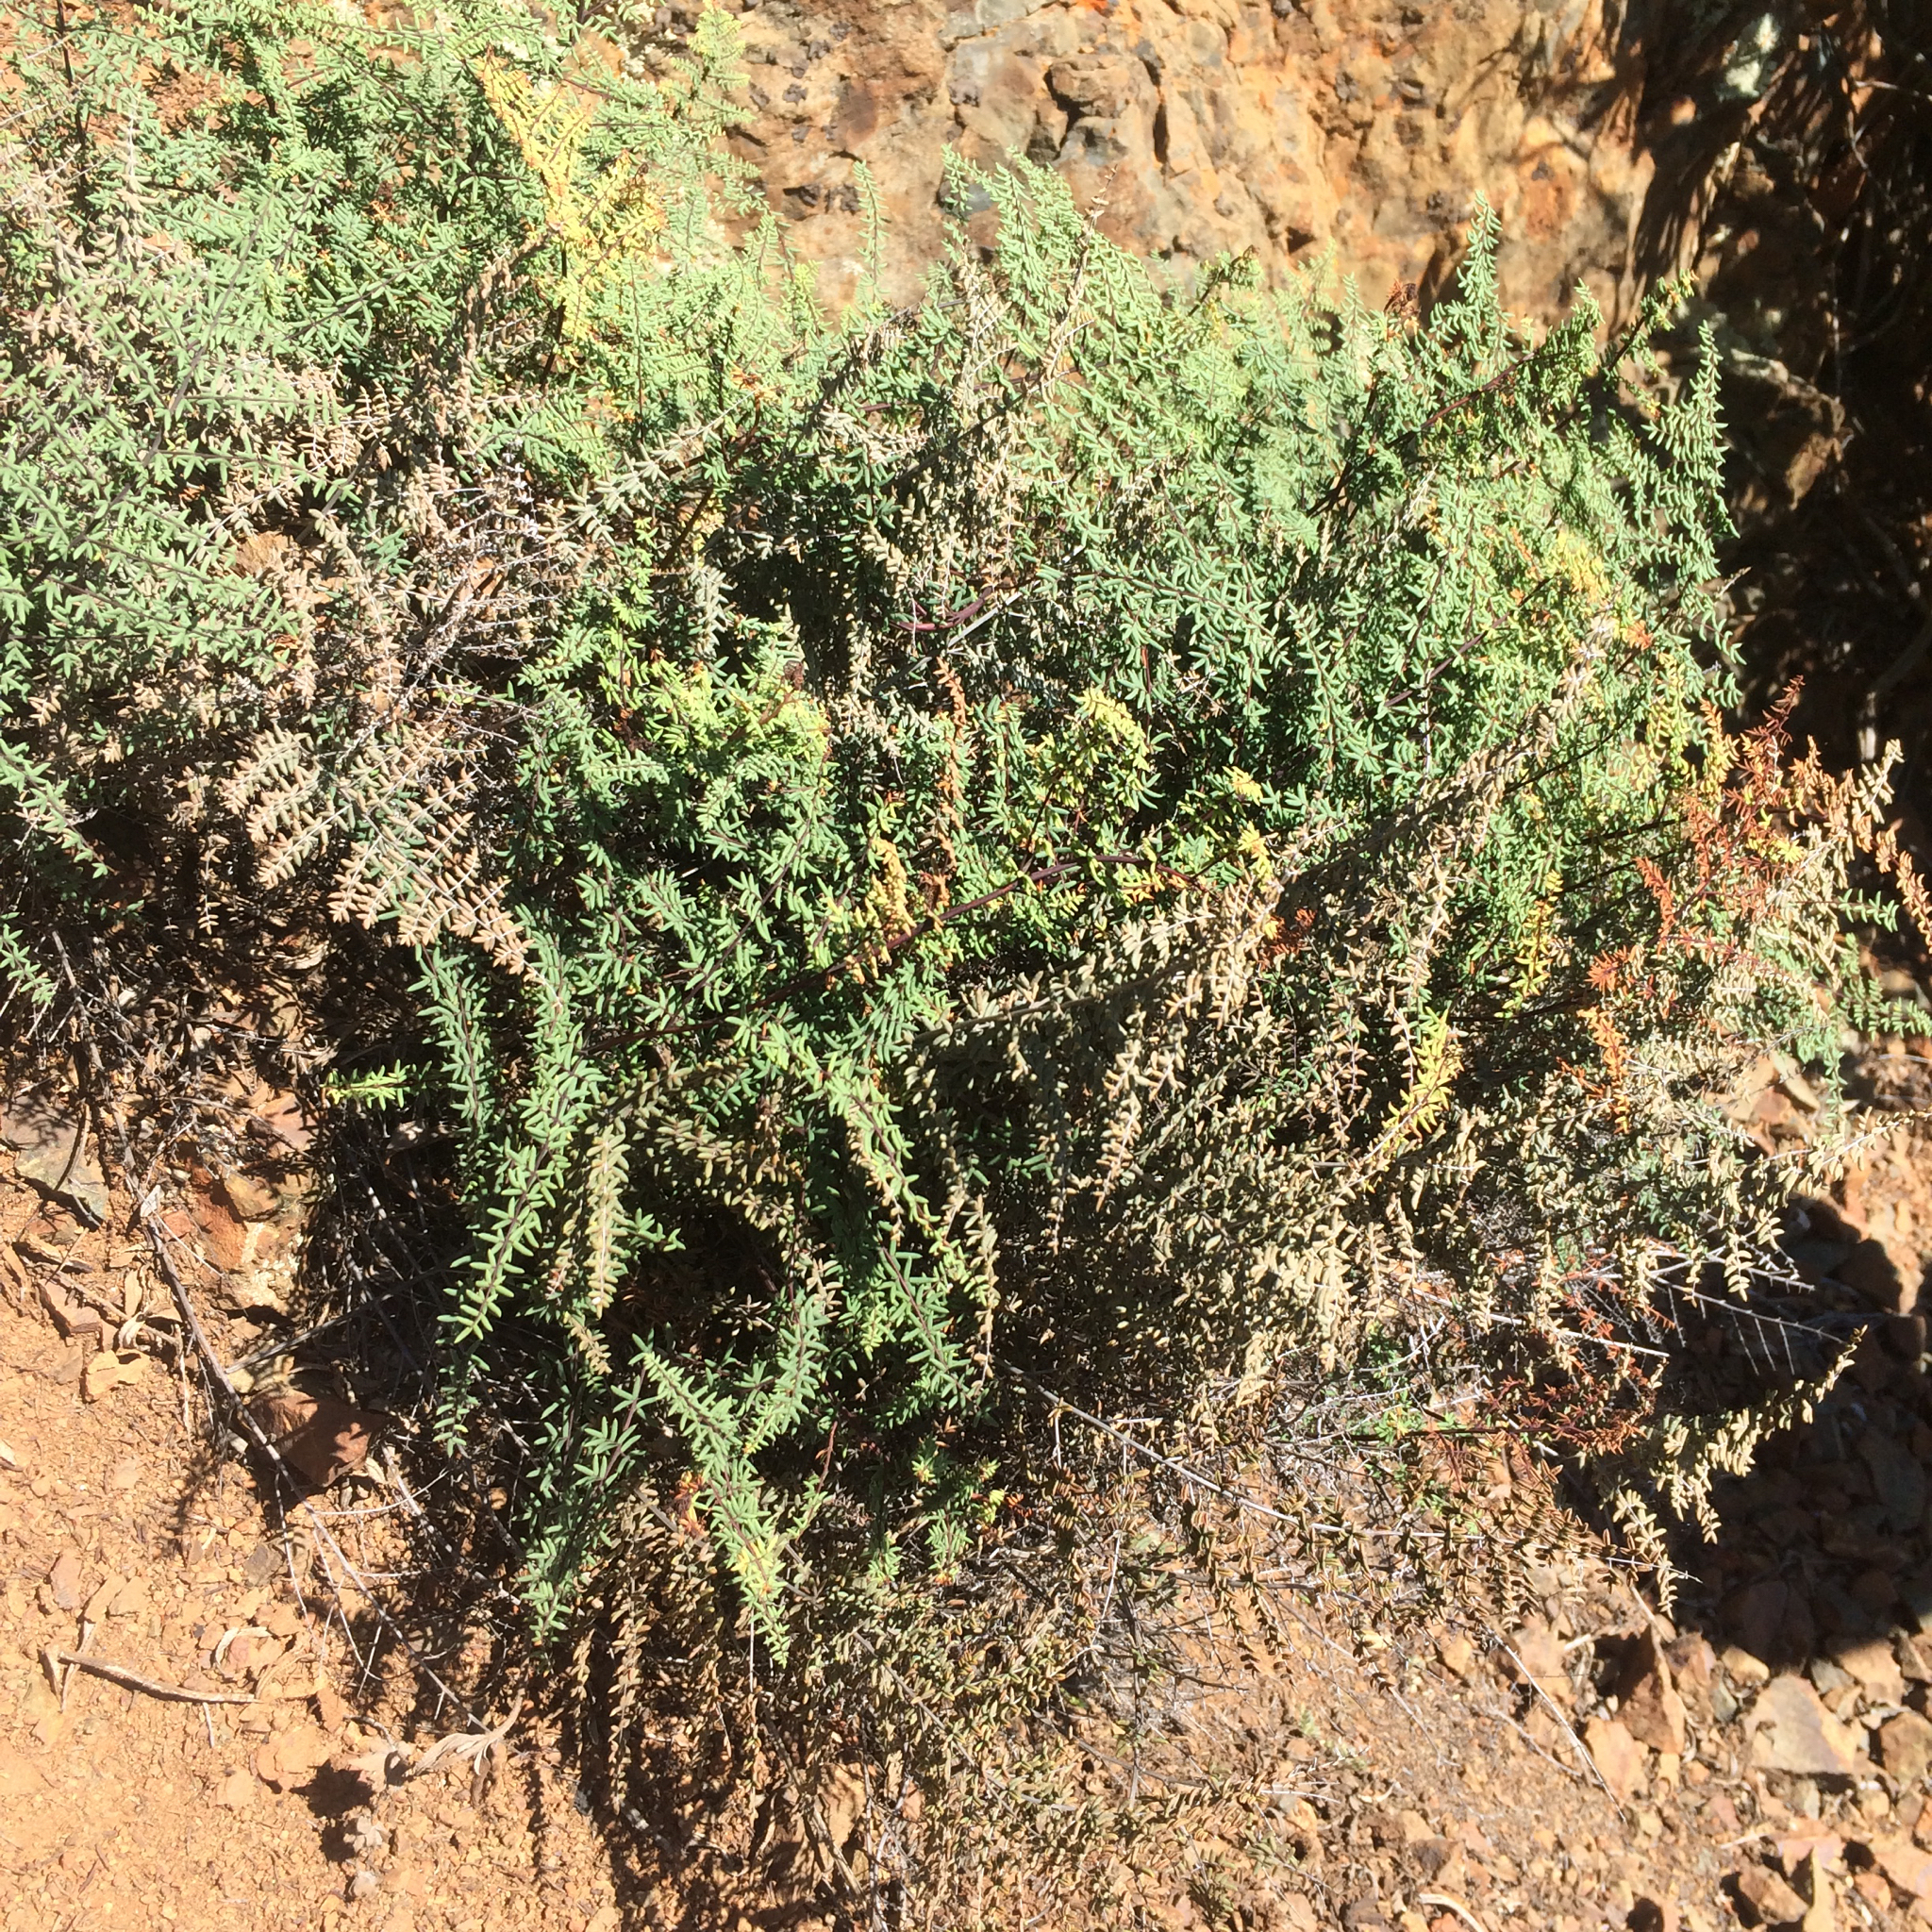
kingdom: Plantae
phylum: Tracheophyta
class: Polypodiopsida
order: Polypodiales
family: Pteridaceae
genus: Pellaea
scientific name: Pellaea mucronata
